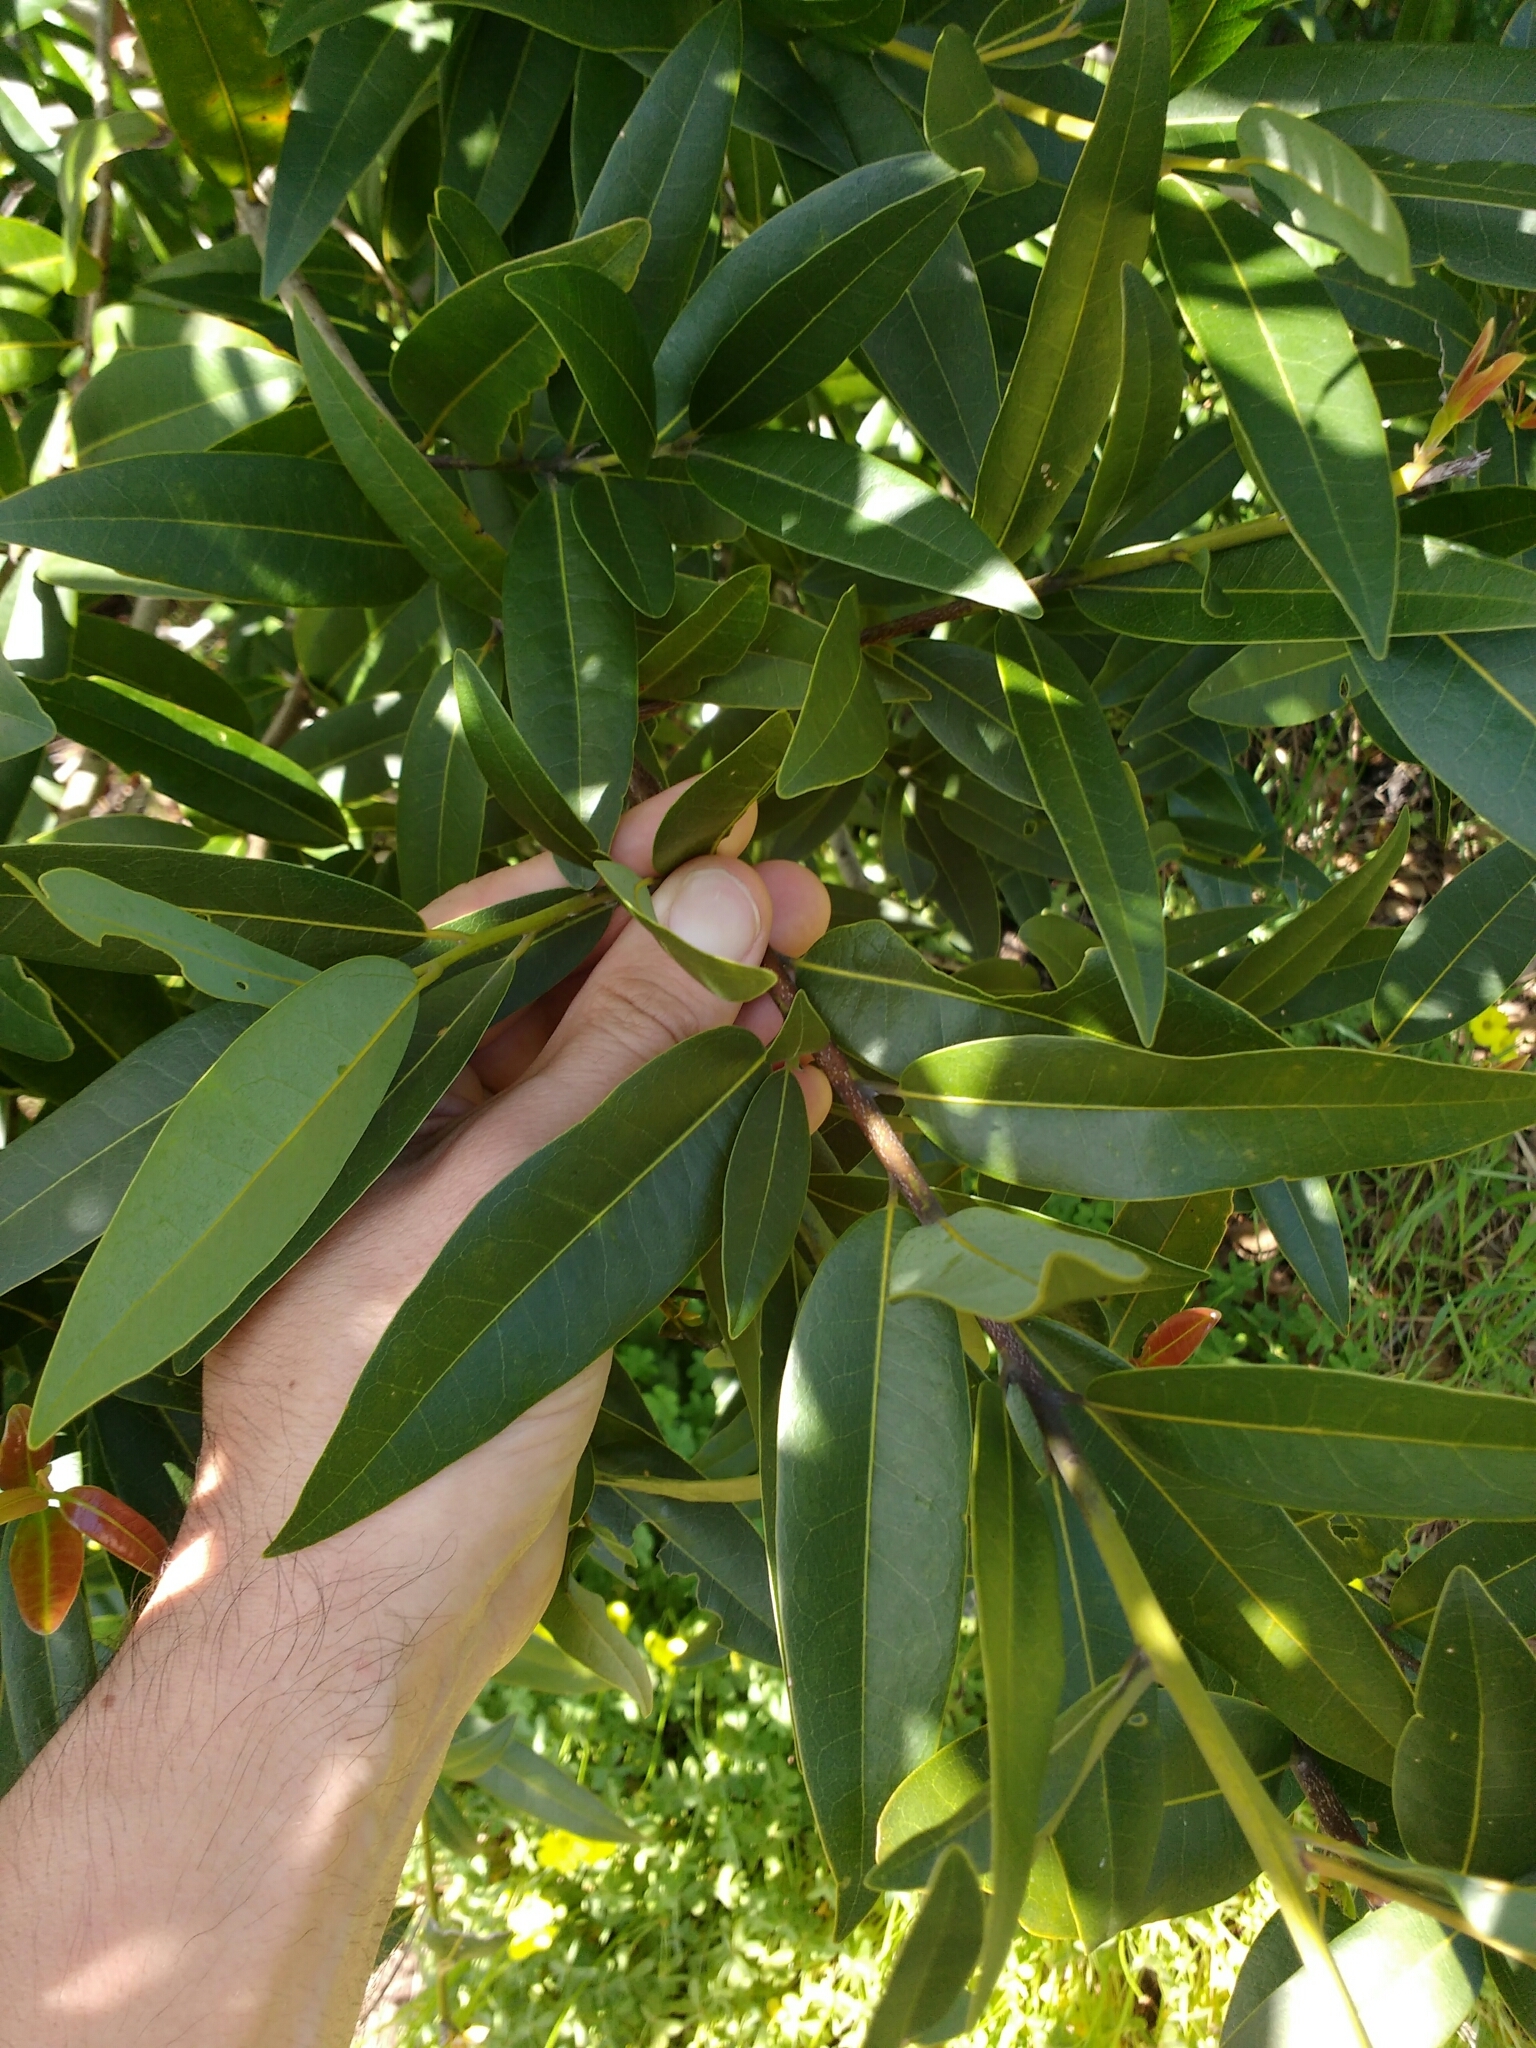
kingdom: Plantae
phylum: Tracheophyta
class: Magnoliopsida
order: Laurales
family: Lauraceae
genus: Umbellularia
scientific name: Umbellularia californica
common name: California bay
